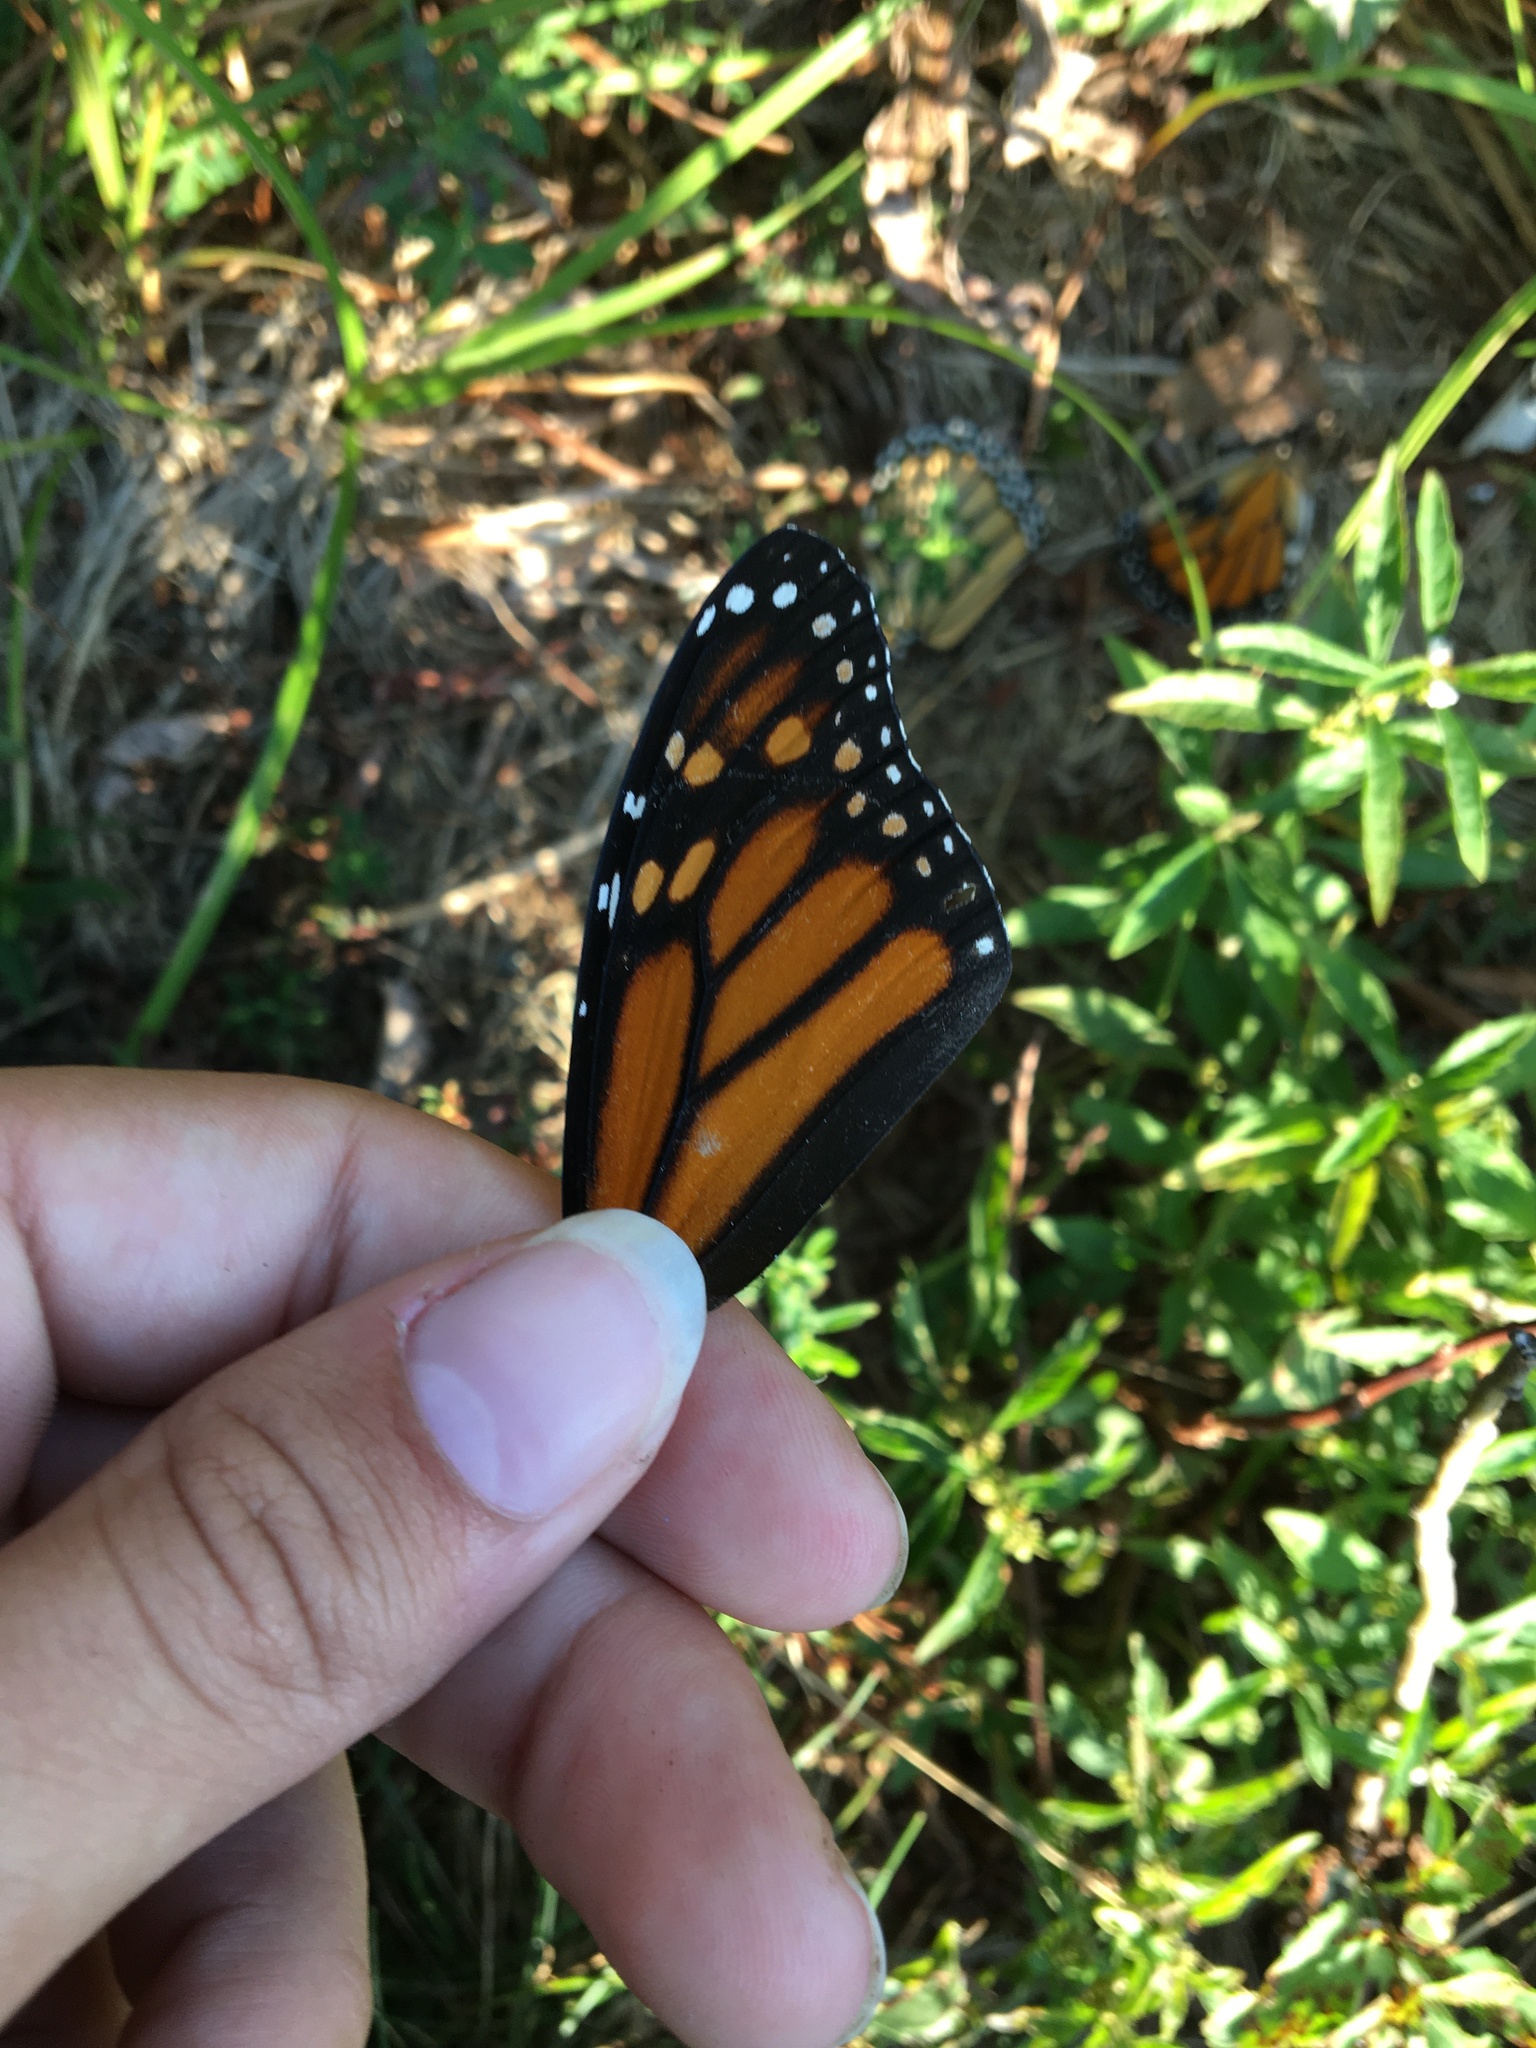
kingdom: Animalia
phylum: Arthropoda
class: Insecta
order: Lepidoptera
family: Nymphalidae
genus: Danaus
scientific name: Danaus plexippus
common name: Monarch
